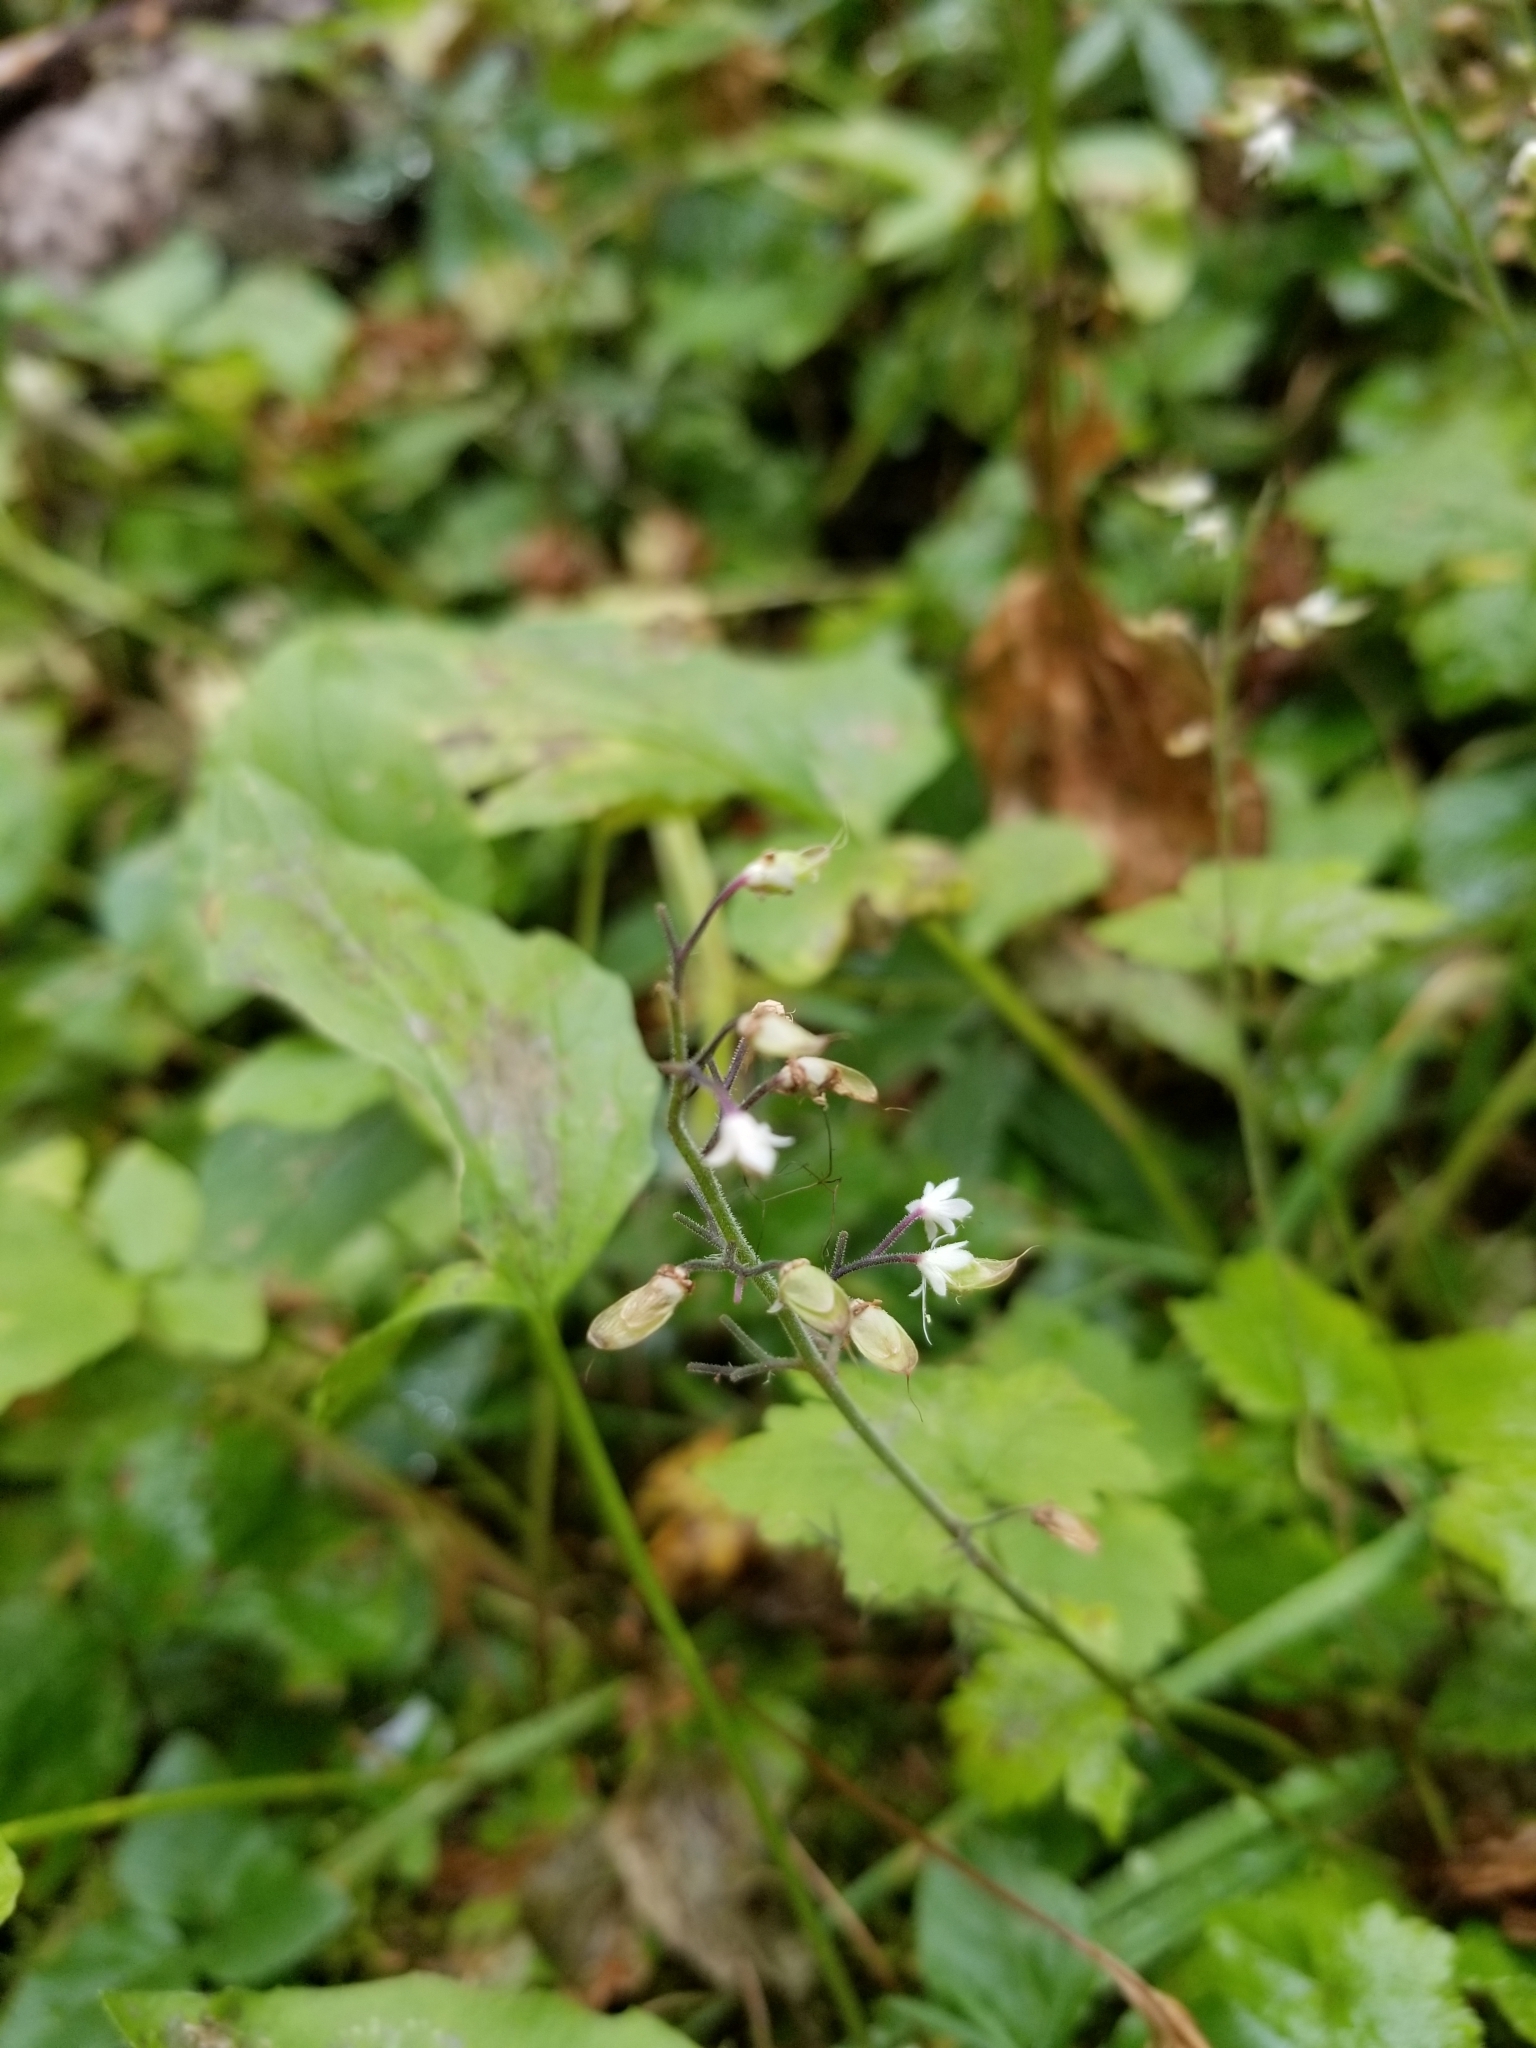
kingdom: Plantae
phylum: Tracheophyta
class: Magnoliopsida
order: Saxifragales
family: Saxifragaceae
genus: Tiarella
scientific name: Tiarella trifoliata
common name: Sugar-scoop
